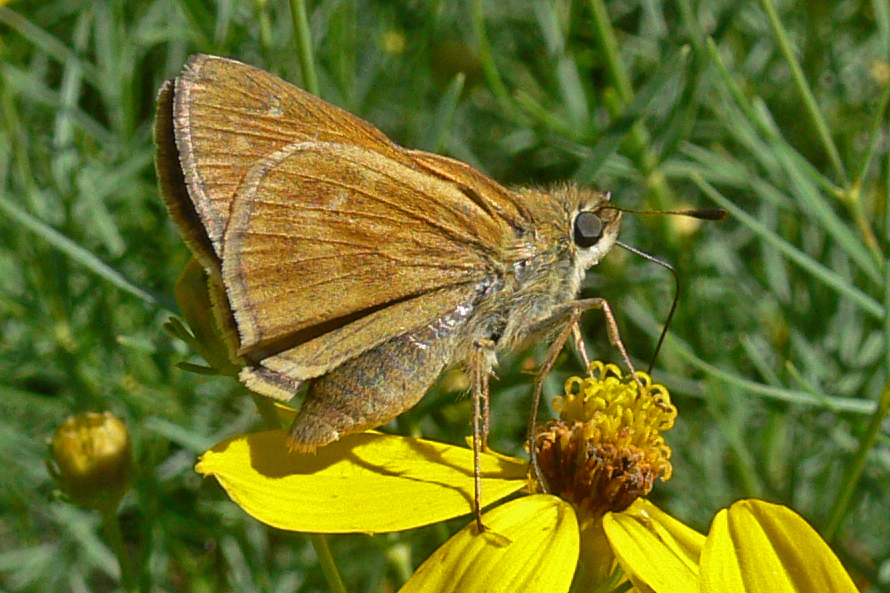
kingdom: Animalia
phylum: Arthropoda
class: Insecta
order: Lepidoptera
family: Hesperiidae
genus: Atalopedes
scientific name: Atalopedes
